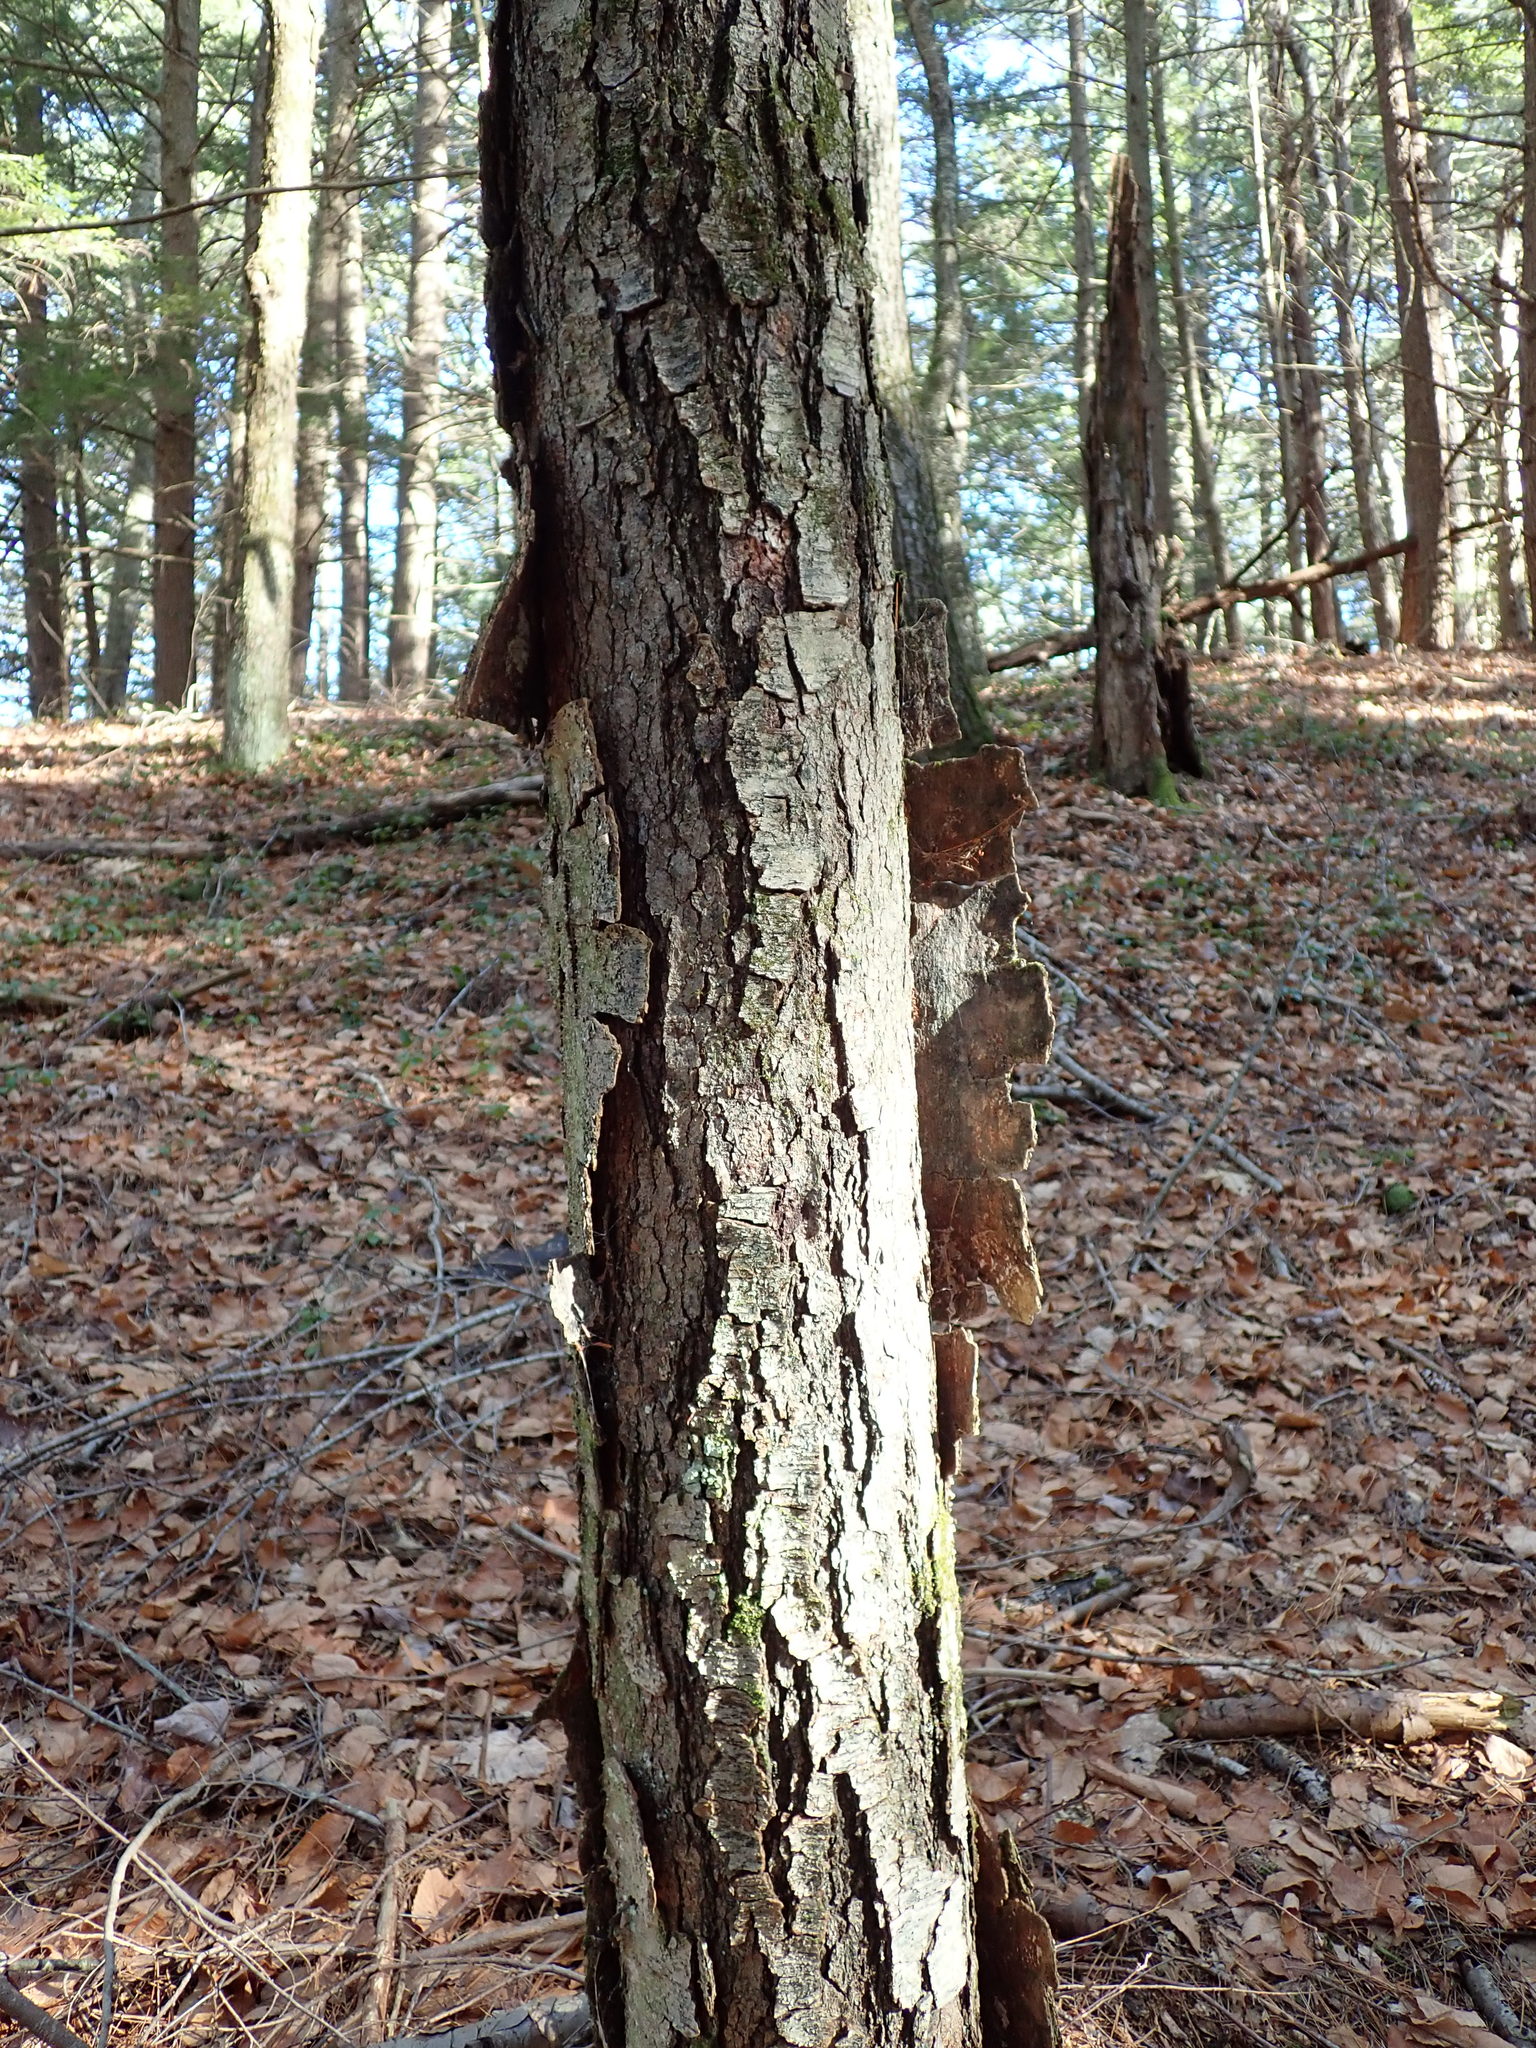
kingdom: Plantae
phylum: Tracheophyta
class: Magnoliopsida
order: Fagales
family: Betulaceae
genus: Betula
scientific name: Betula lenta
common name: Black birch
